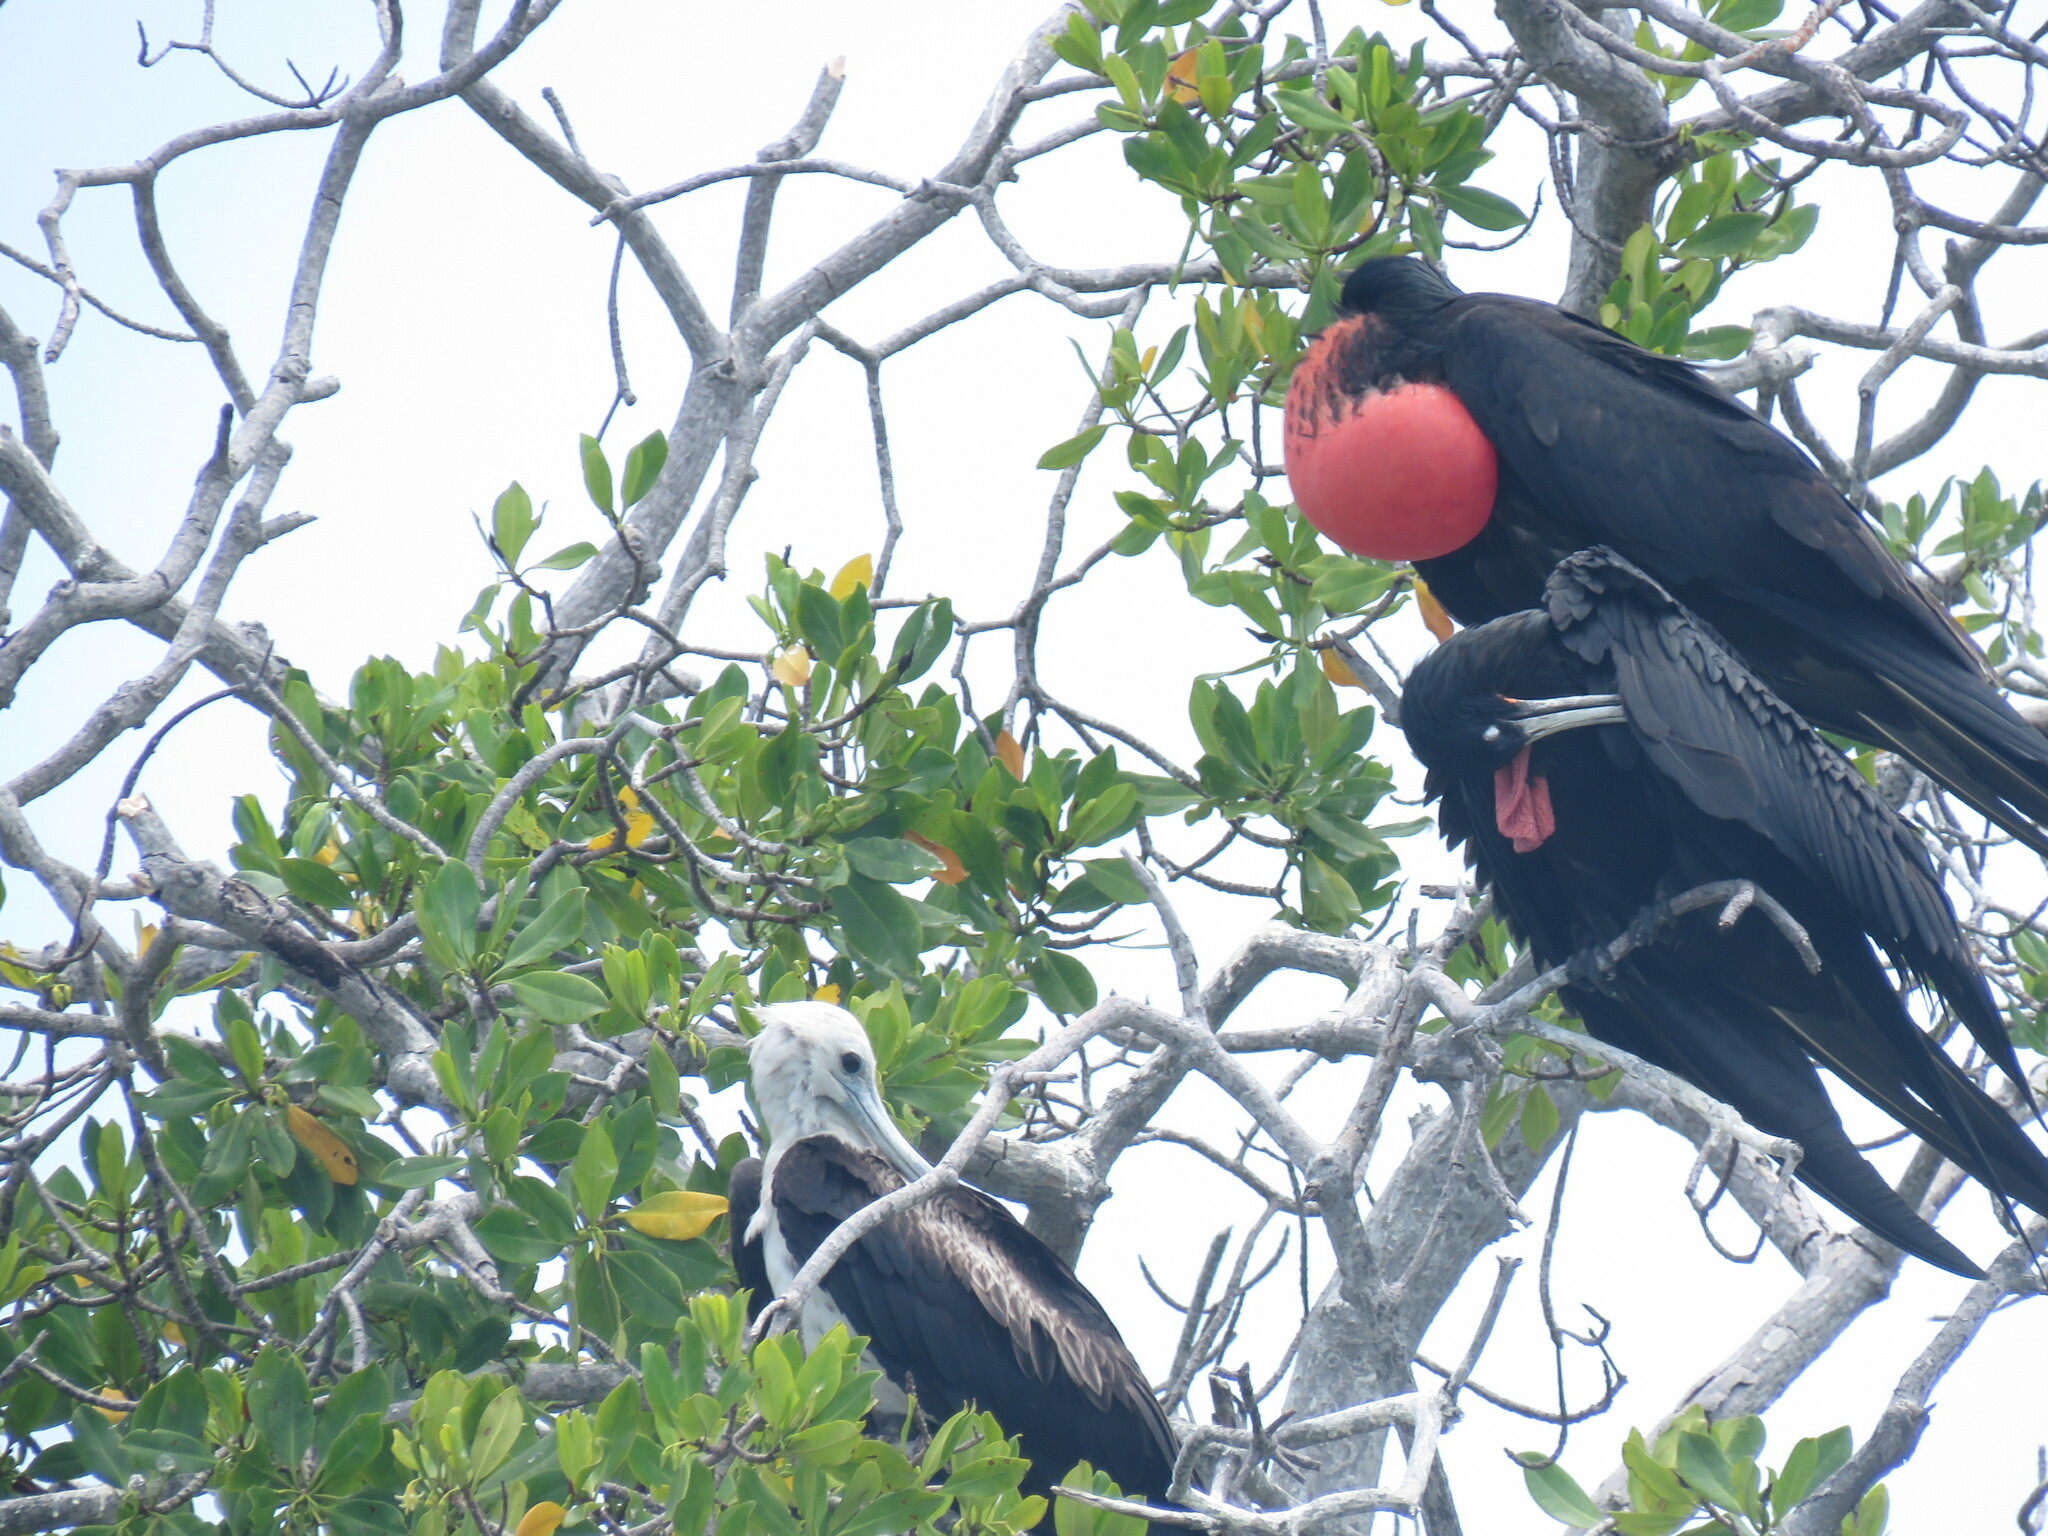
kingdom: Animalia
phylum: Chordata
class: Aves
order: Suliformes
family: Fregatidae
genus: Fregata
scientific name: Fregata magnificens
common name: Magnificent frigatebird
